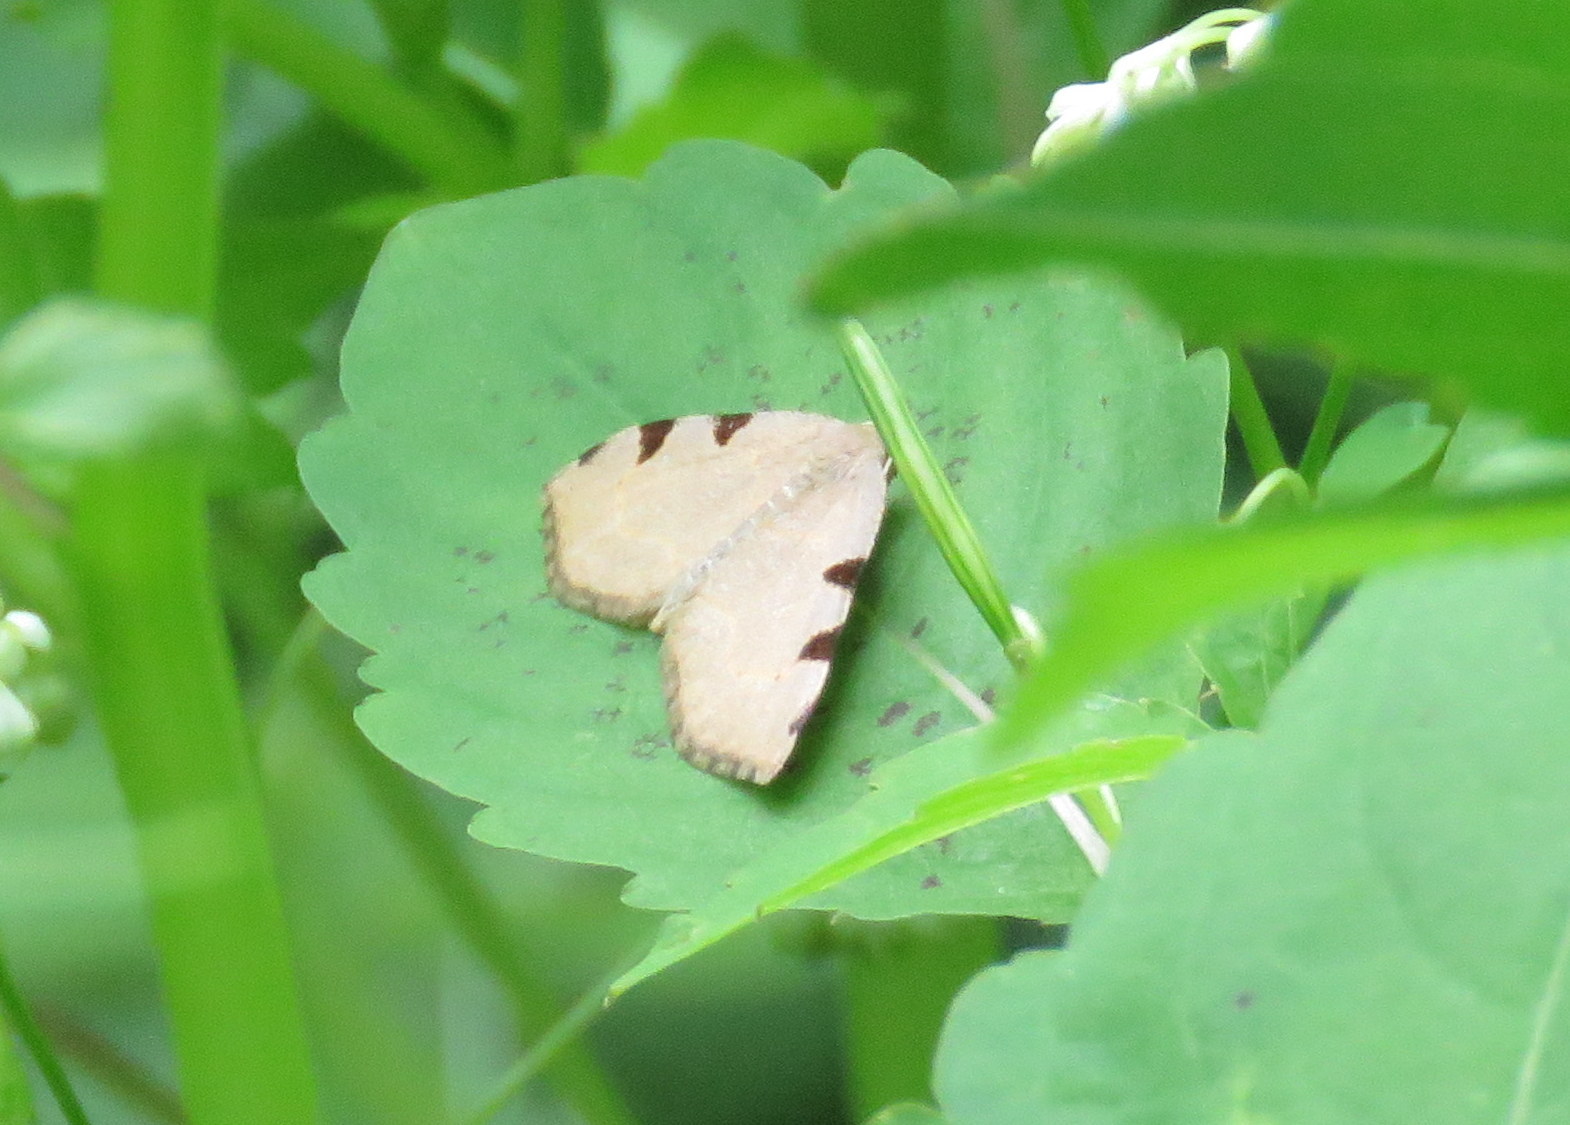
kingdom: Animalia
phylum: Arthropoda
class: Insecta
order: Lepidoptera
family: Geometridae
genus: Heterophleps
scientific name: Heterophleps triguttaria
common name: Three-spotted fillip
